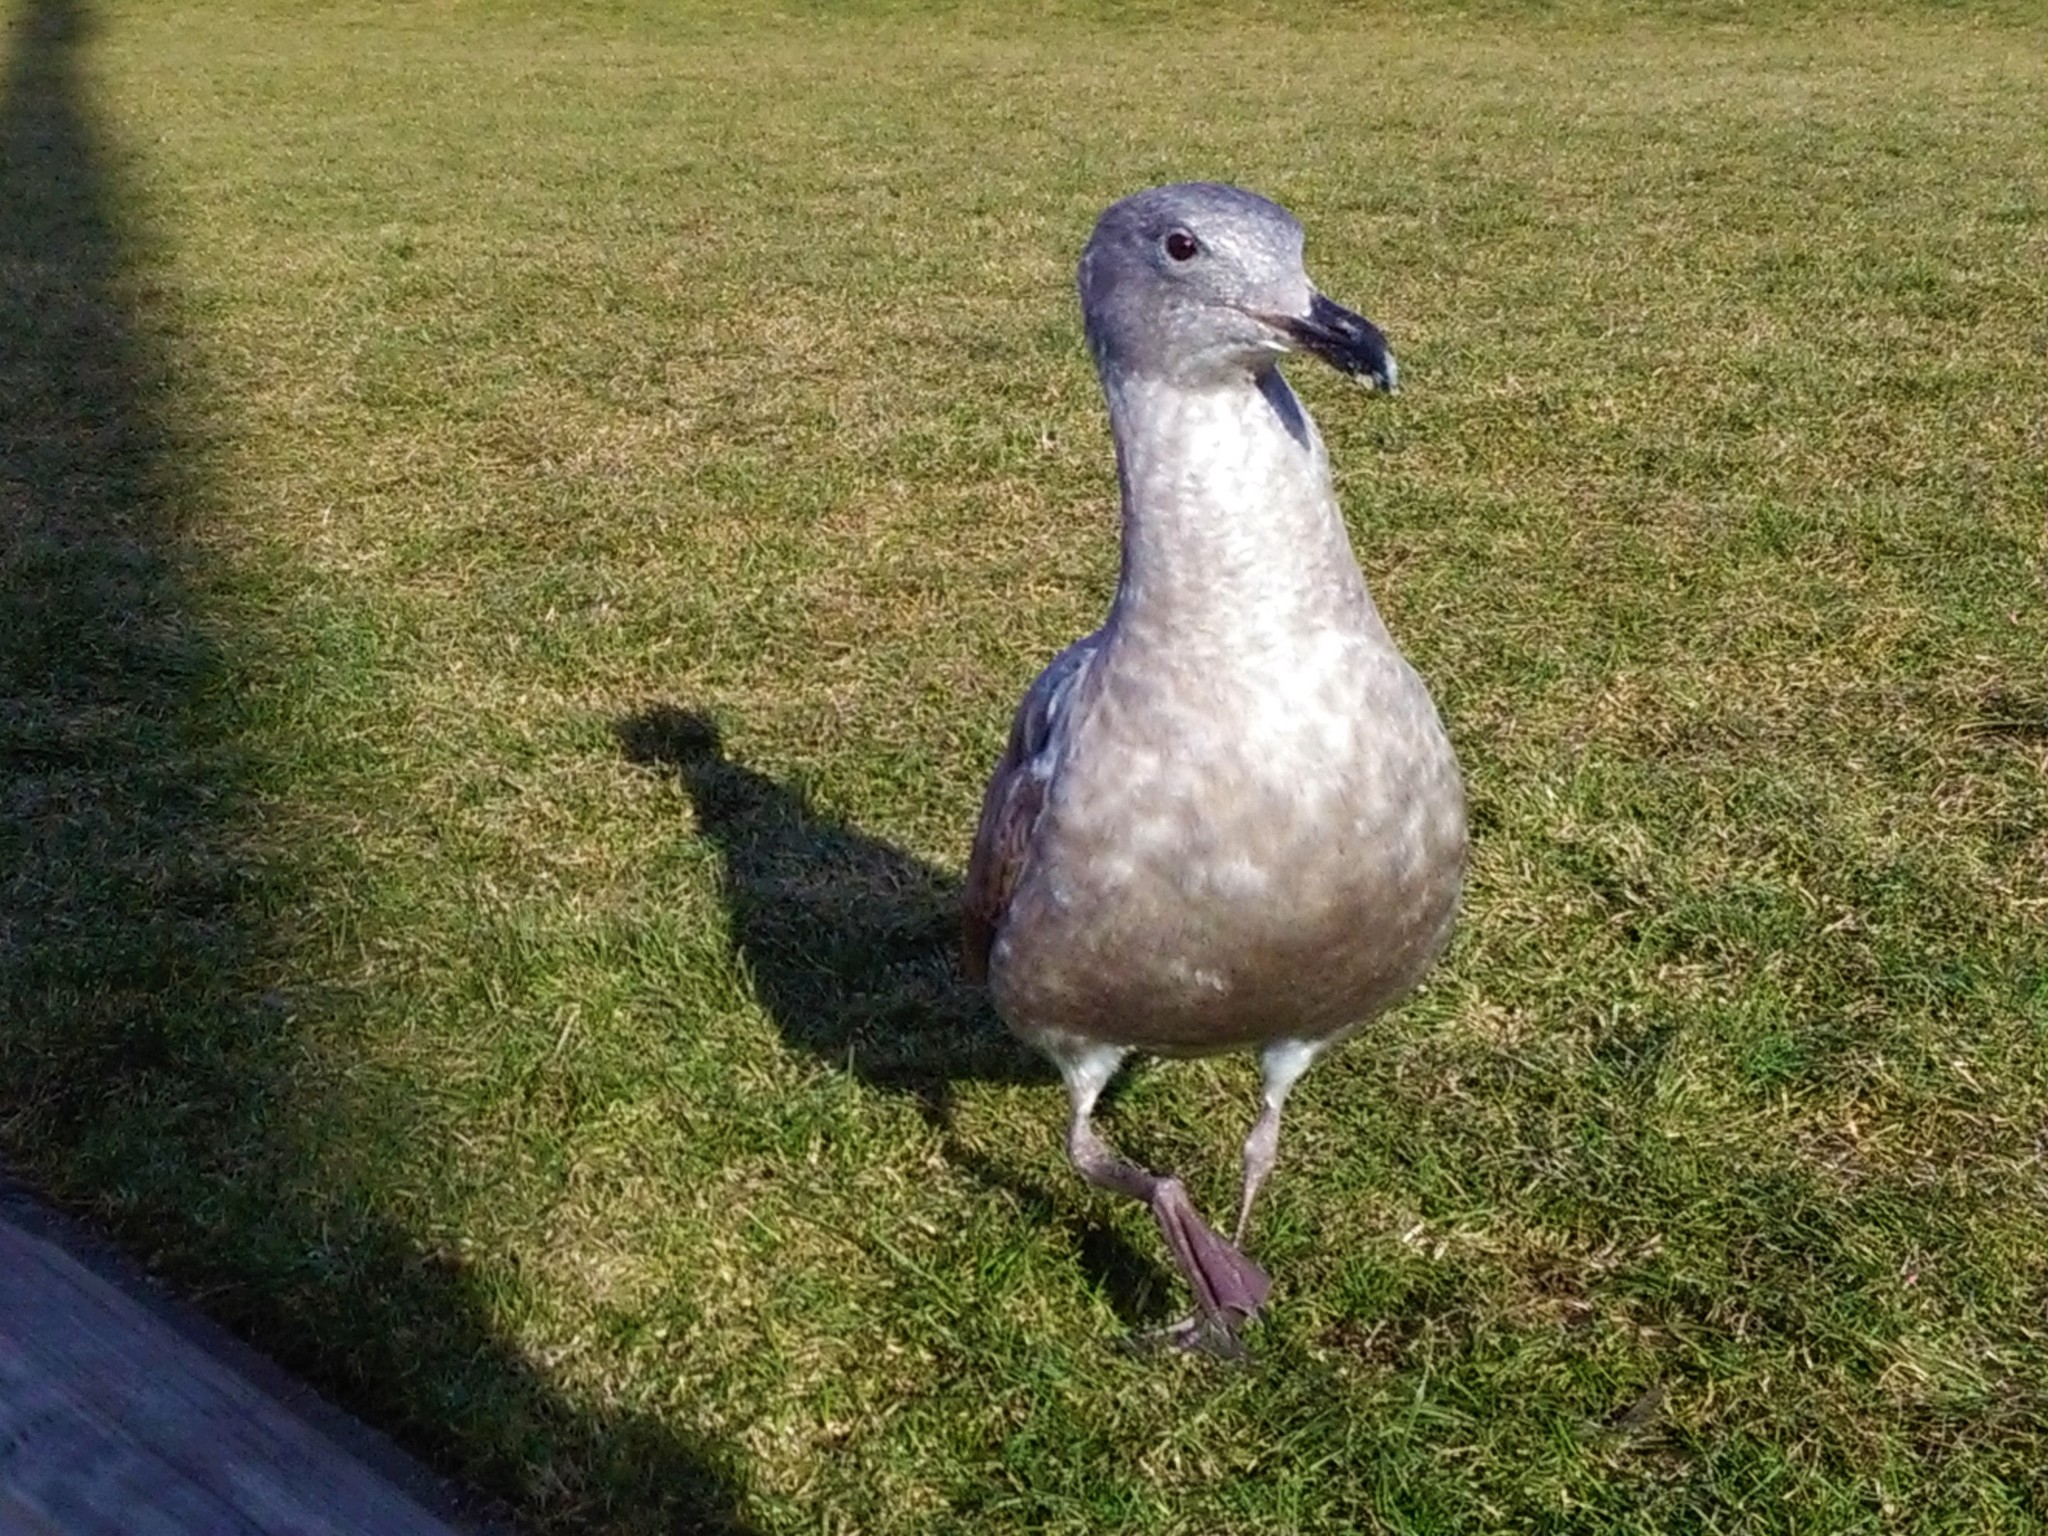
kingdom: Animalia
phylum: Chordata
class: Aves
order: Charadriiformes
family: Laridae
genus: Larus
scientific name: Larus
